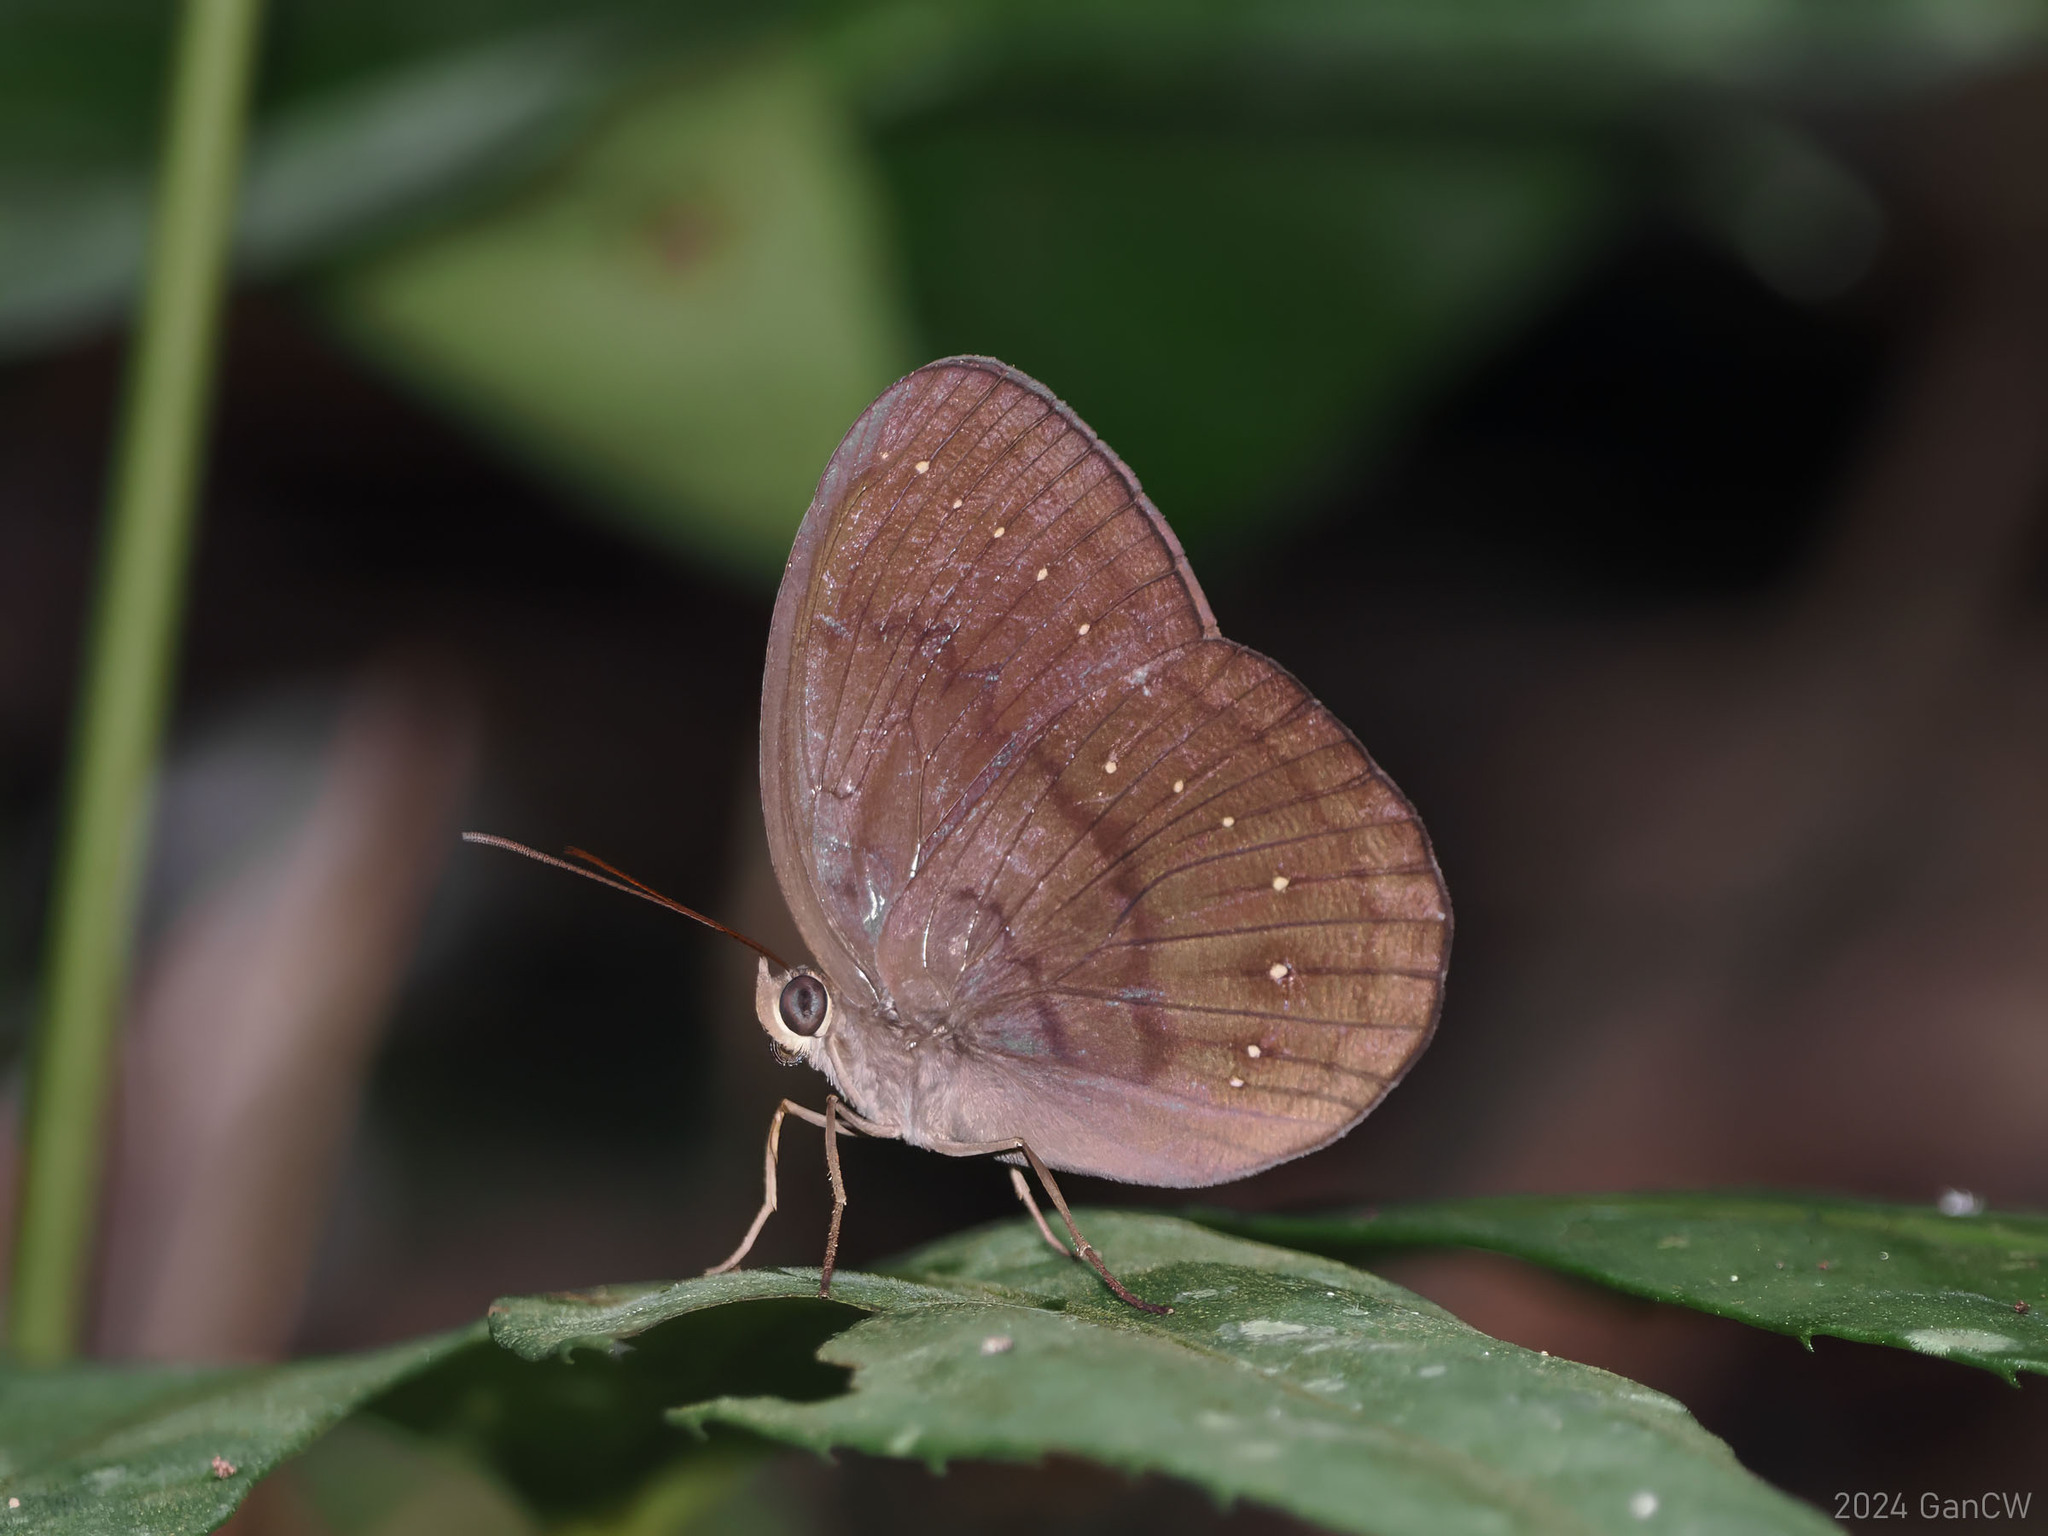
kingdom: Animalia
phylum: Arthropoda
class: Insecta
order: Lepidoptera
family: Nymphalidae
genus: Faunis
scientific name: Faunis canens
